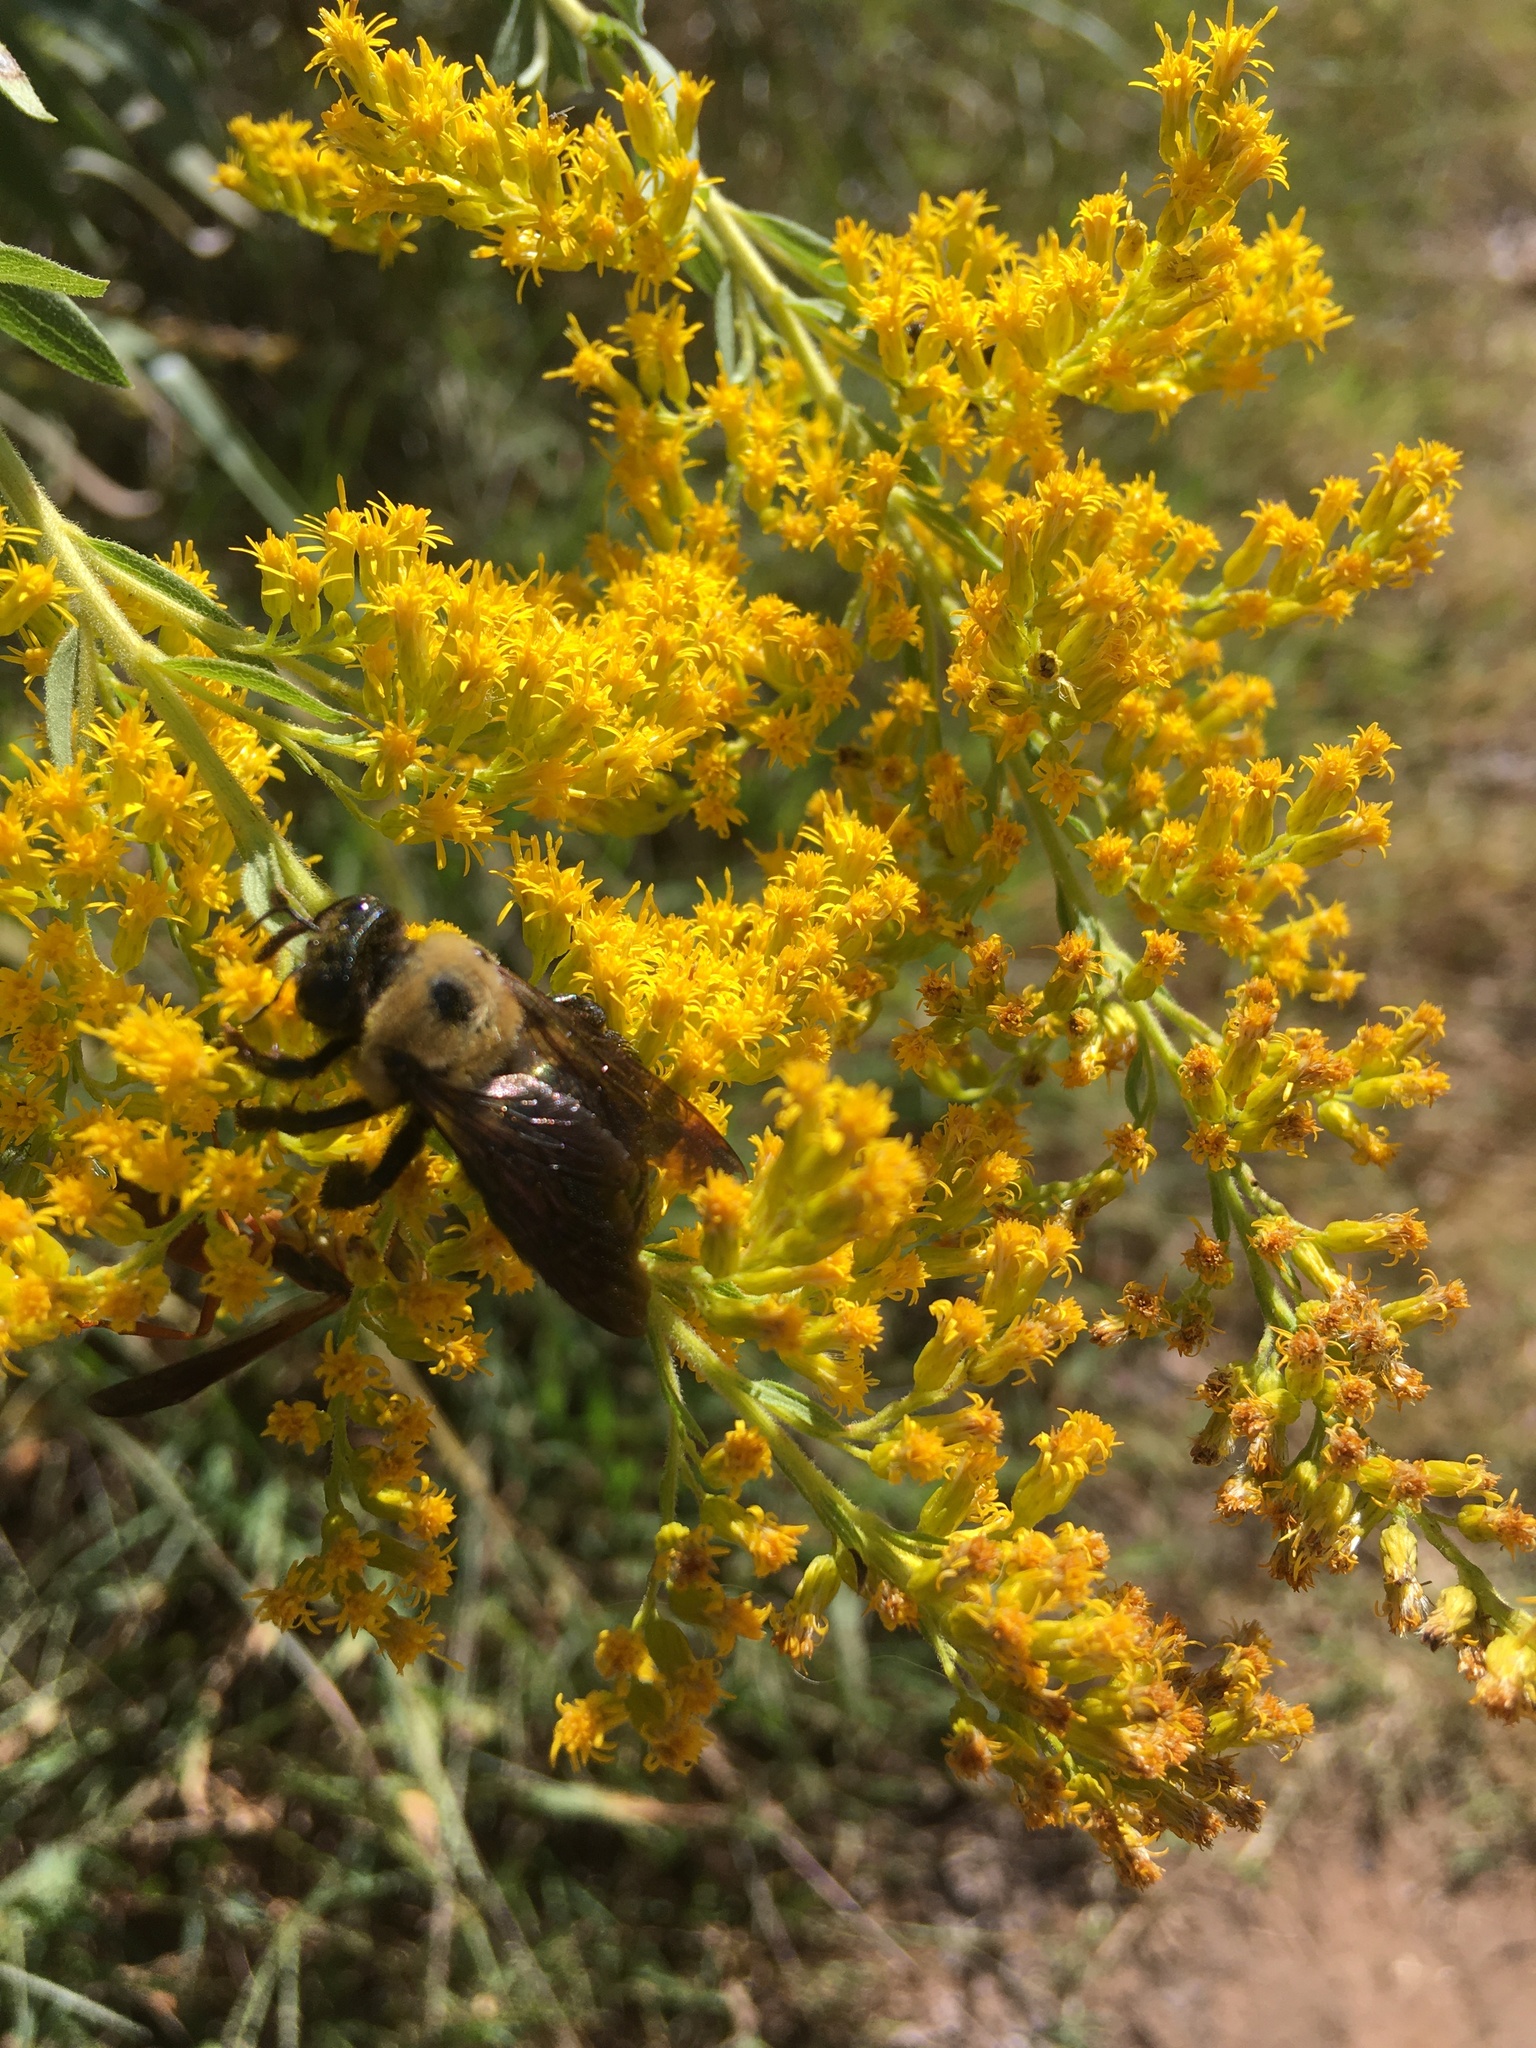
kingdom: Animalia
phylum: Arthropoda
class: Insecta
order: Hymenoptera
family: Apidae
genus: Xylocopa
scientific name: Xylocopa virginica
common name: Carpenter bee
